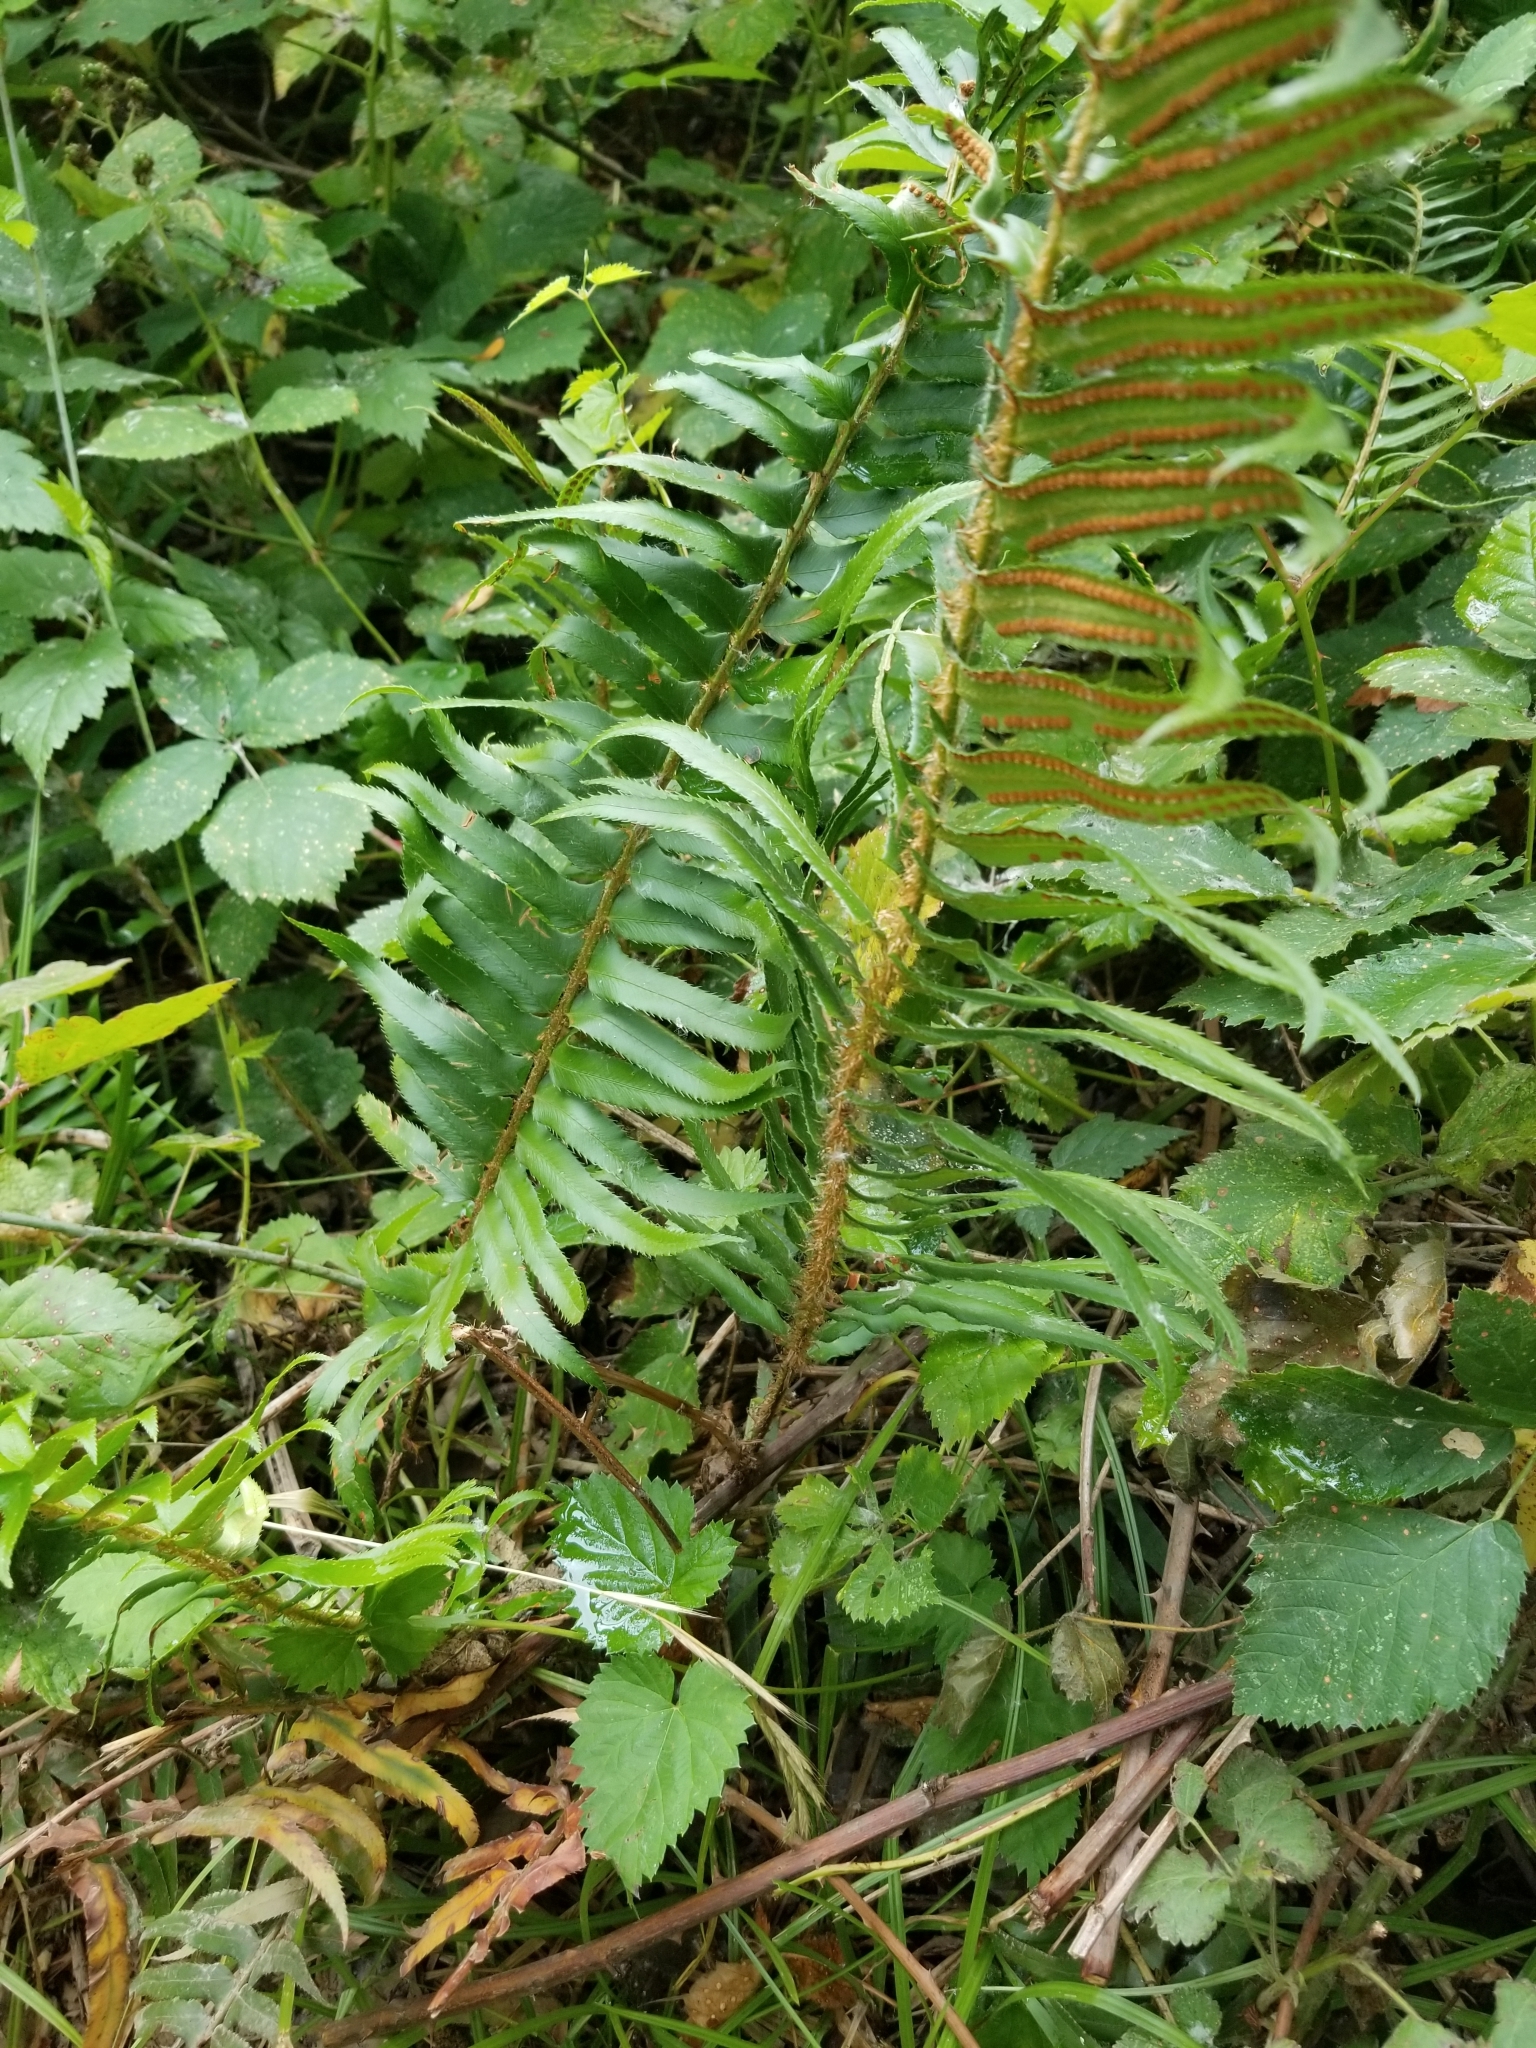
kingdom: Plantae
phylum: Tracheophyta
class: Polypodiopsida
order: Polypodiales
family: Dryopteridaceae
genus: Polystichum
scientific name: Polystichum munitum
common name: Western sword-fern
